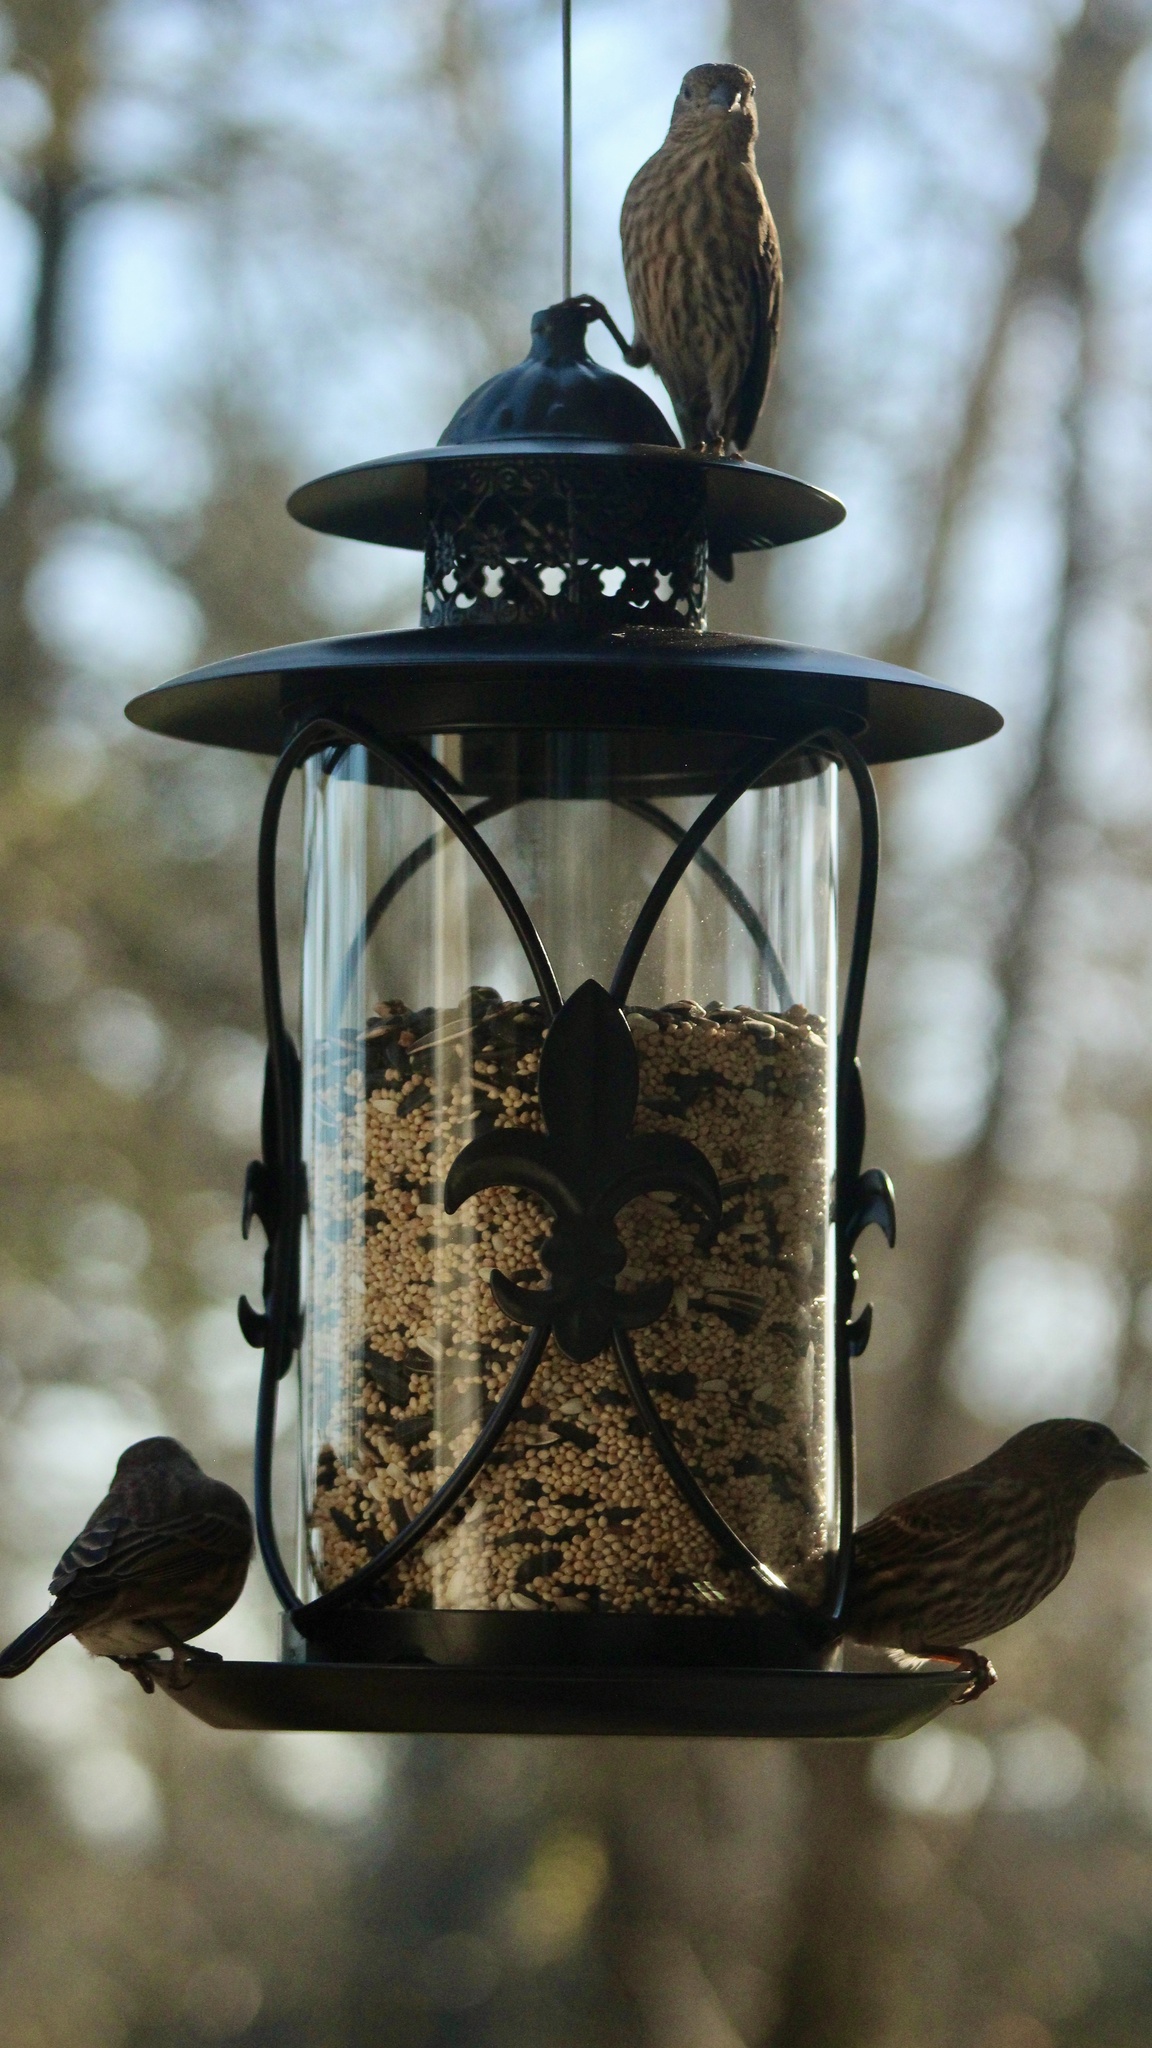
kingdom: Animalia
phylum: Chordata
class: Aves
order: Passeriformes
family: Fringillidae
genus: Haemorhous
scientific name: Haemorhous mexicanus
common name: House finch
